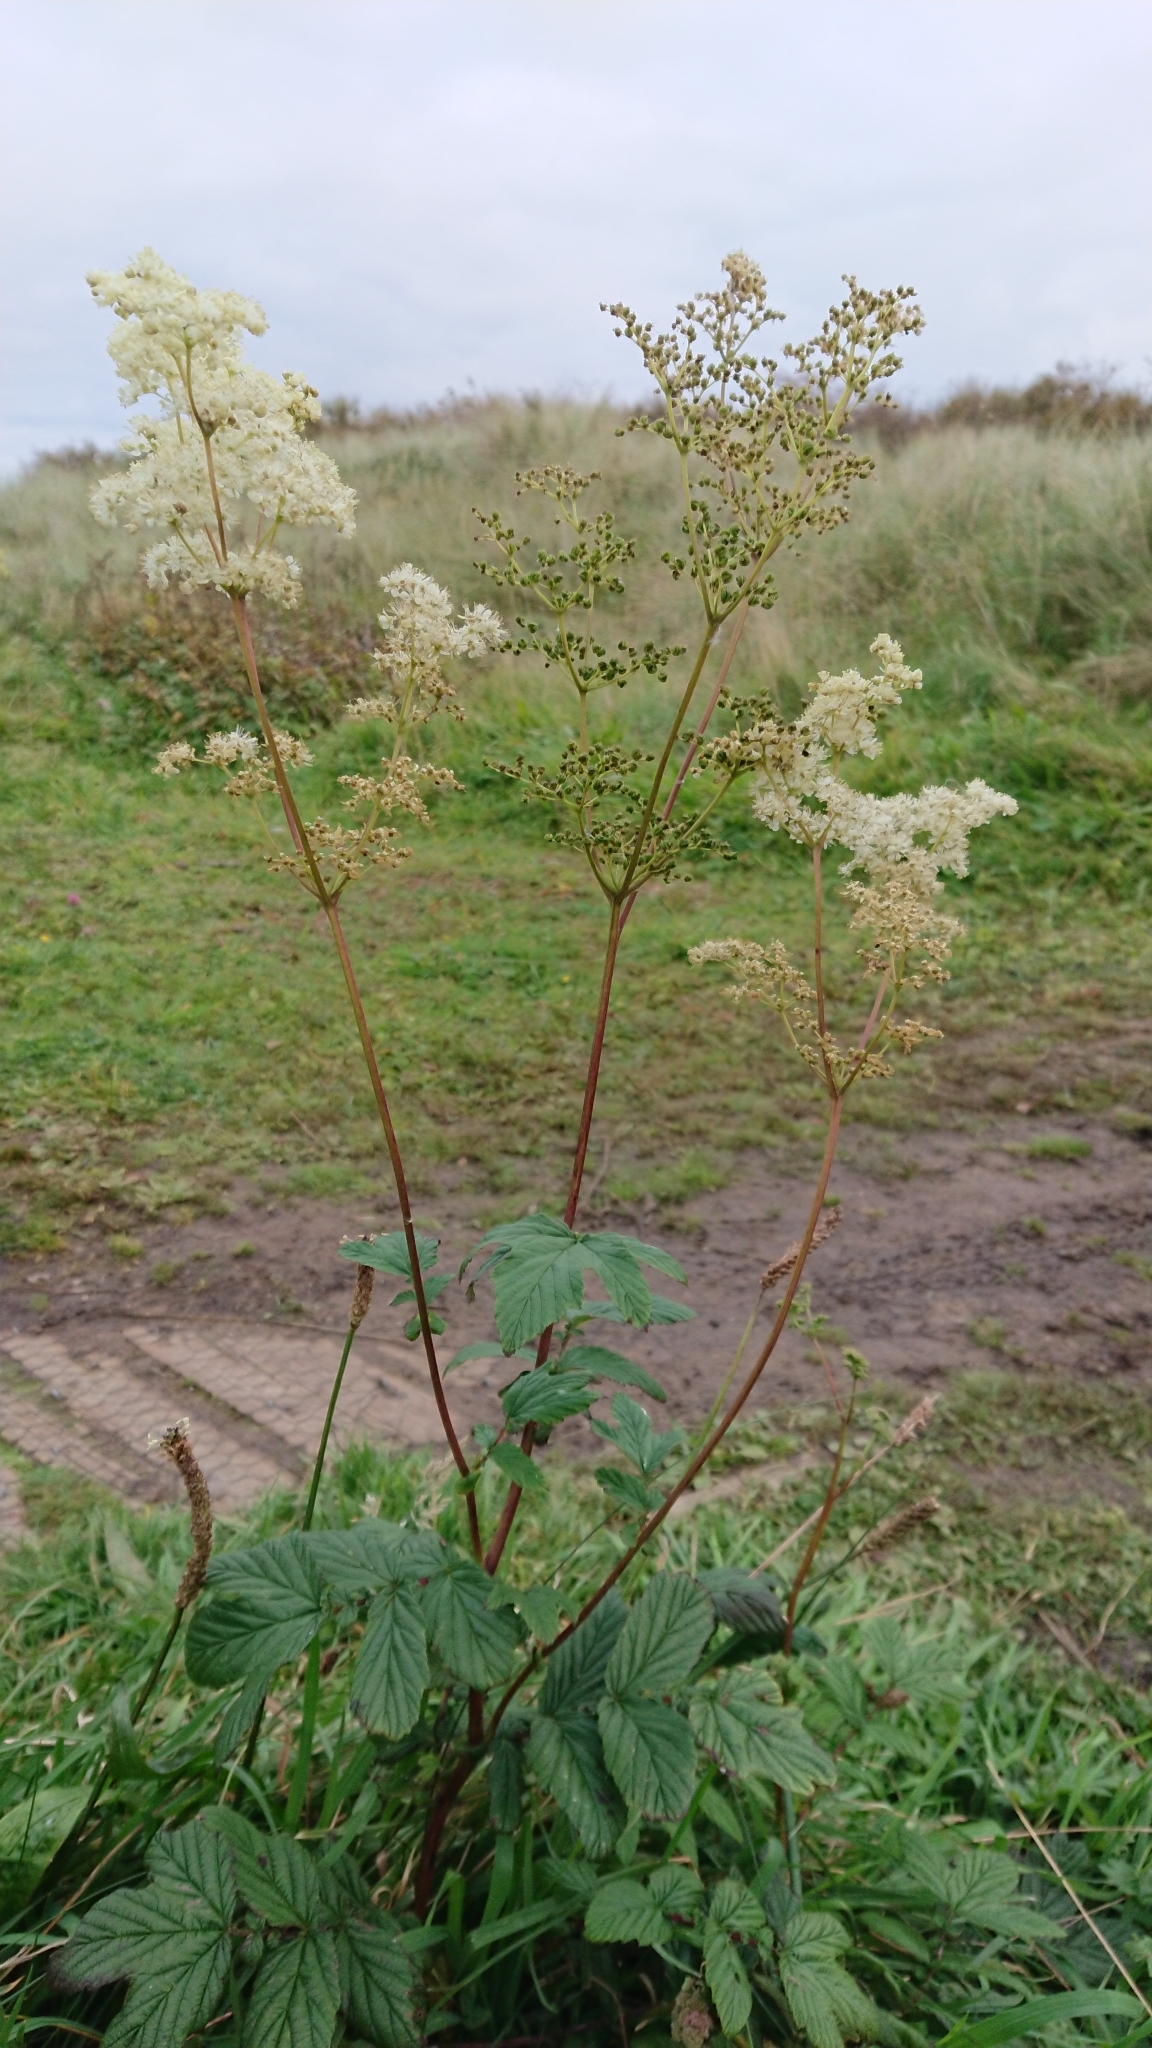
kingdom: Plantae
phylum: Tracheophyta
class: Magnoliopsida
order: Rosales
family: Rosaceae
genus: Filipendula
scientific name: Filipendula ulmaria
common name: Meadowsweet
